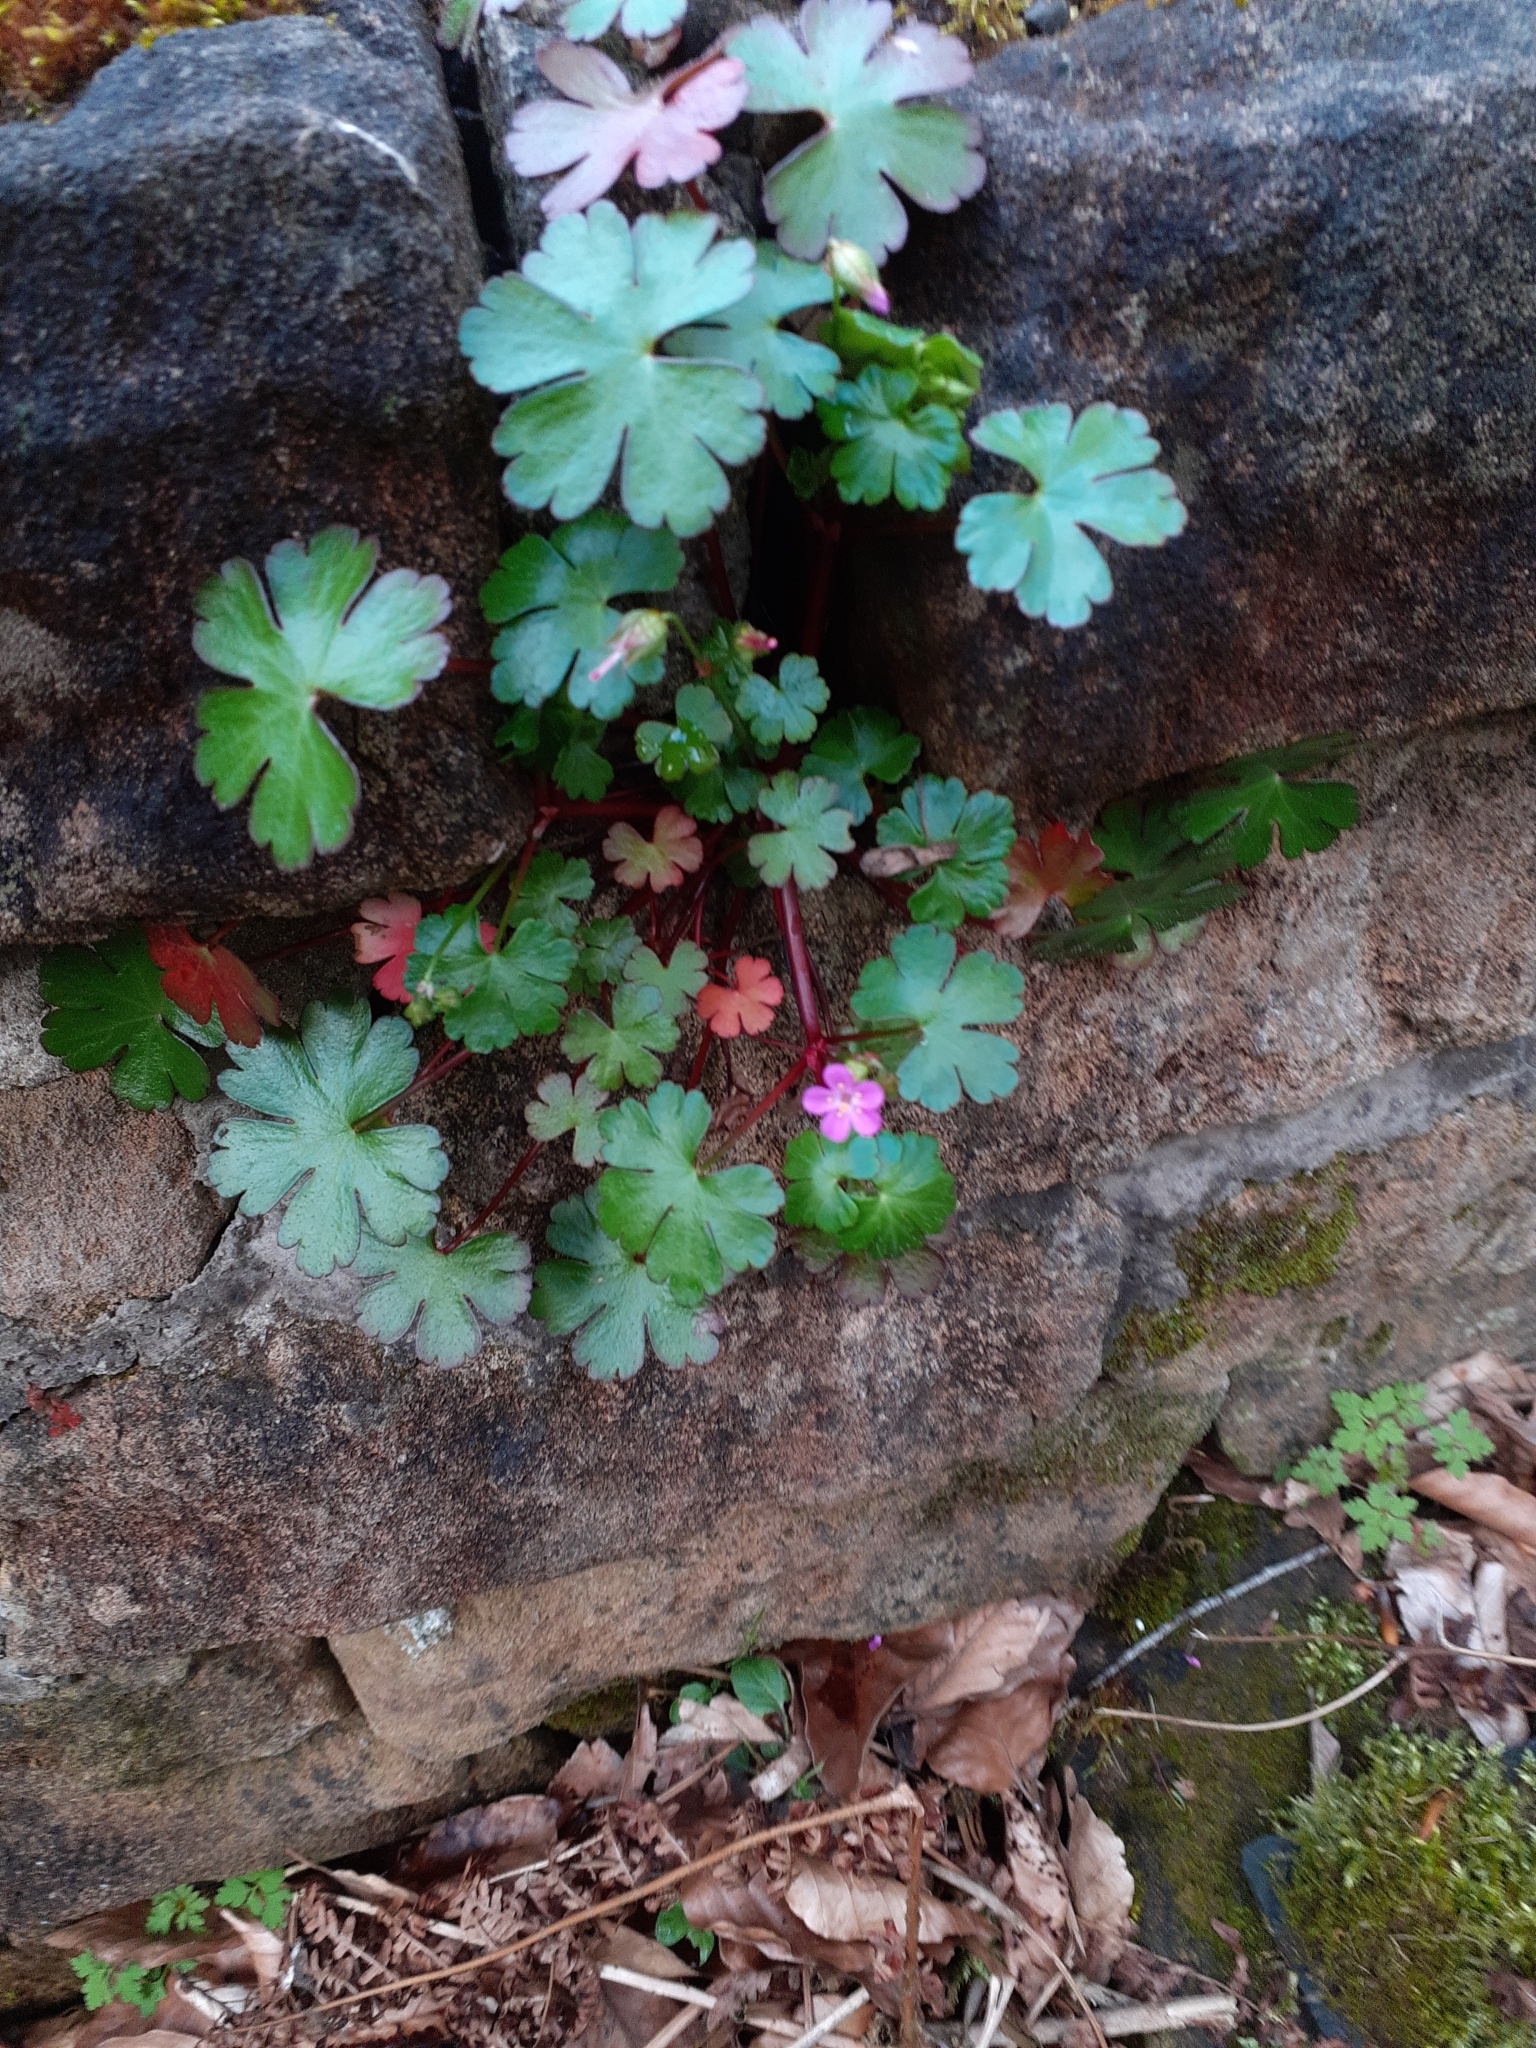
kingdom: Plantae
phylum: Tracheophyta
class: Magnoliopsida
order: Geraniales
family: Geraniaceae
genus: Geranium
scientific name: Geranium lucidum
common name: Shining crane's-bill
